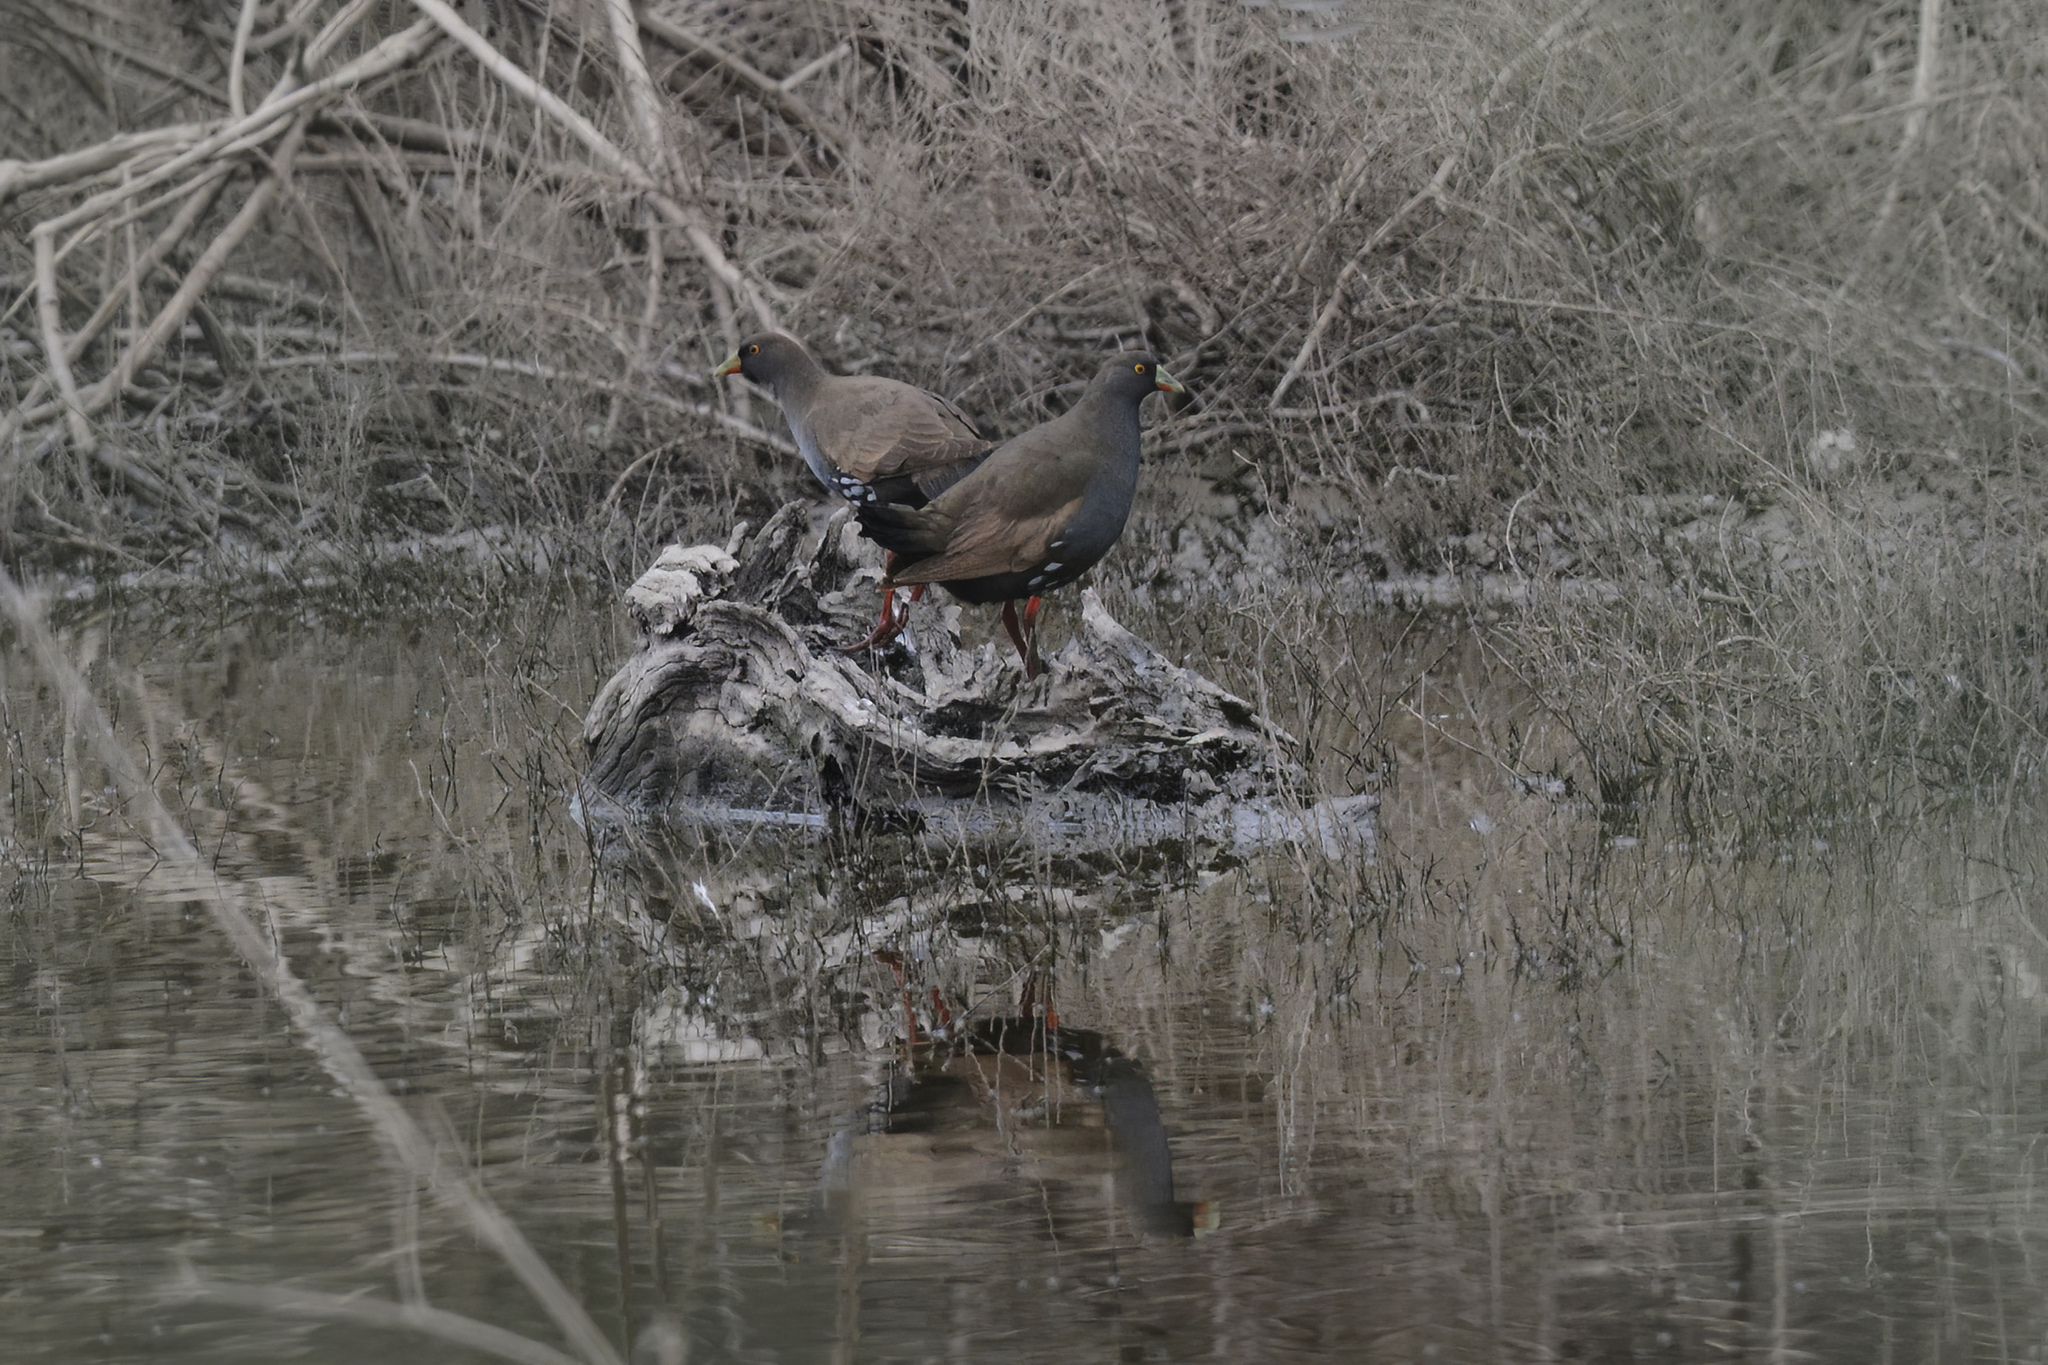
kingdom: Animalia
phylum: Chordata
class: Aves
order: Gruiformes
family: Rallidae
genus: Gallinula
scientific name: Gallinula ventralis
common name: Black-tailed nativehen
